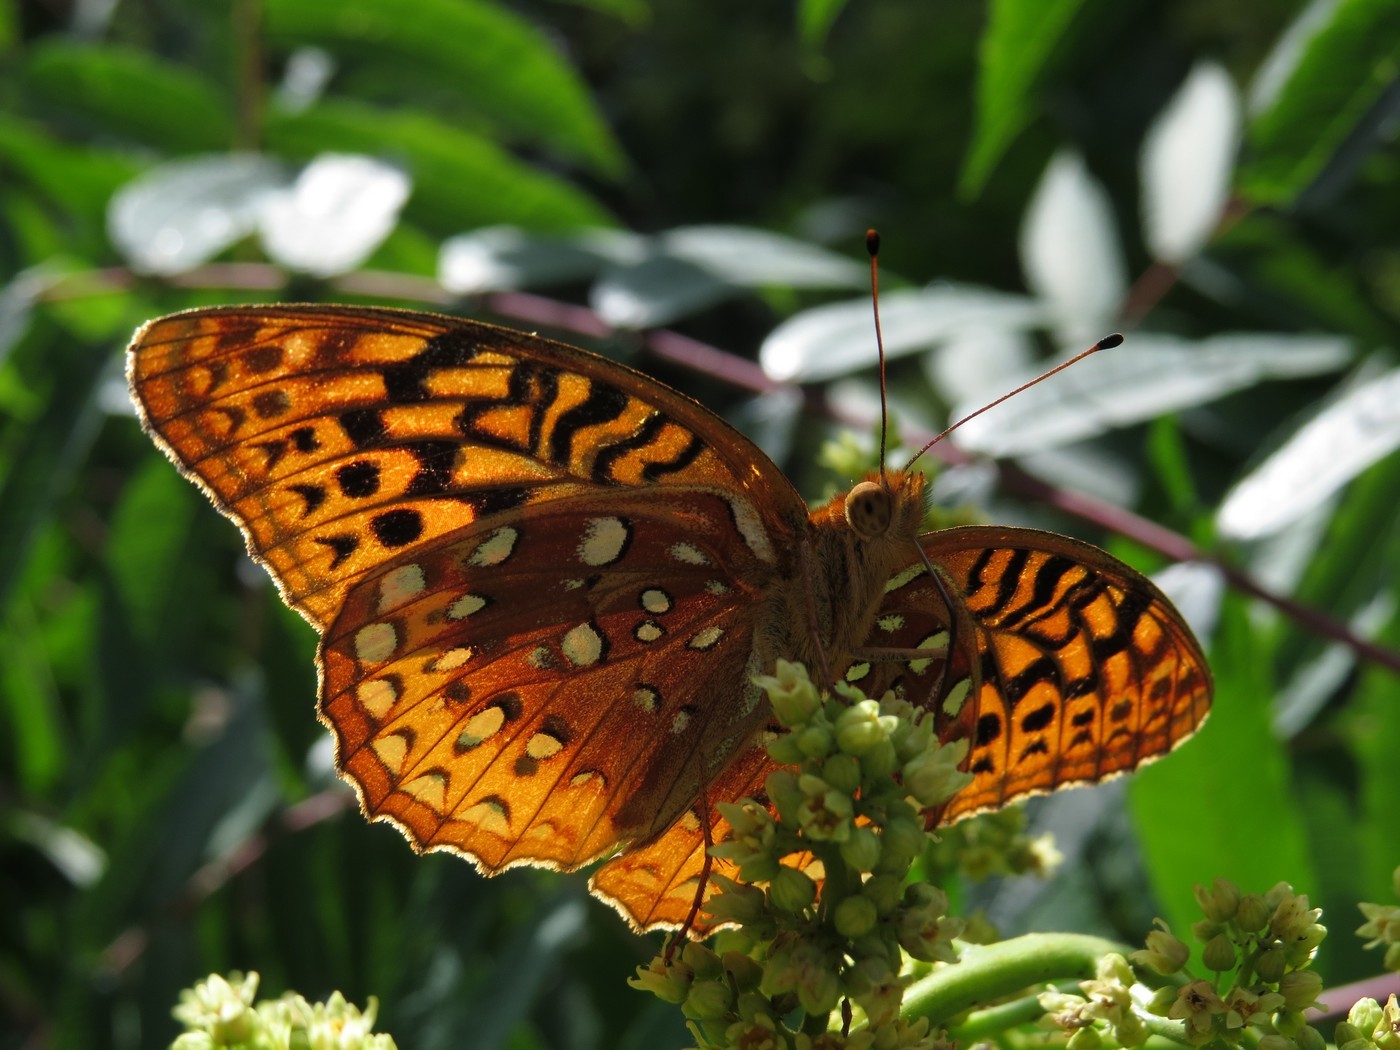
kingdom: Animalia
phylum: Arthropoda
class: Insecta
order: Lepidoptera
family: Nymphalidae
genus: Speyeria
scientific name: Speyeria cybele
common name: Great spangled fritillary
